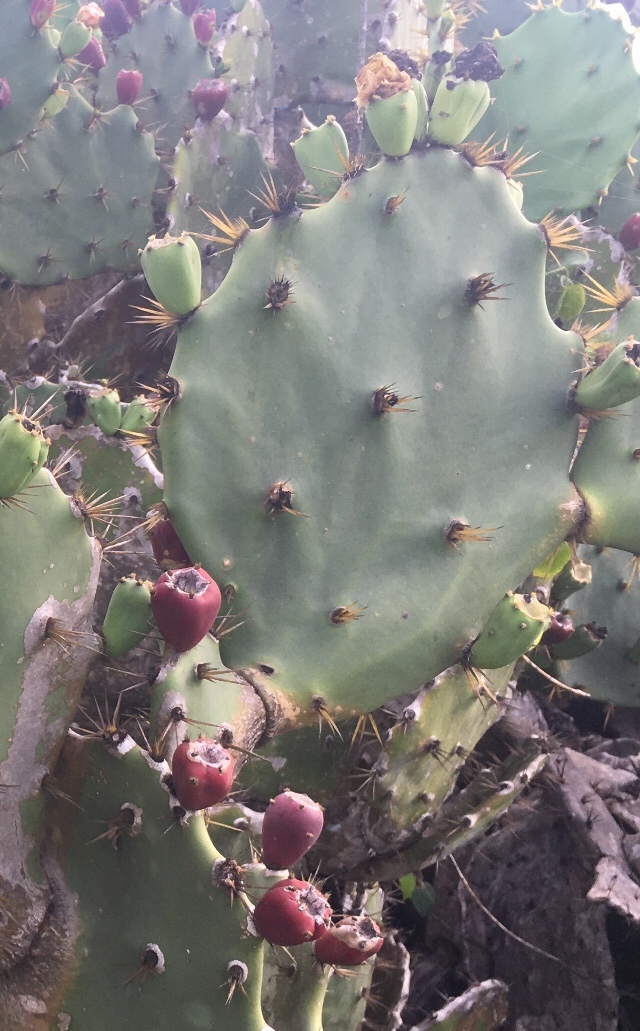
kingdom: Plantae
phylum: Tracheophyta
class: Magnoliopsida
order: Caryophyllales
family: Cactaceae
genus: Opuntia
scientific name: Opuntia dillenii
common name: Sour prickle
